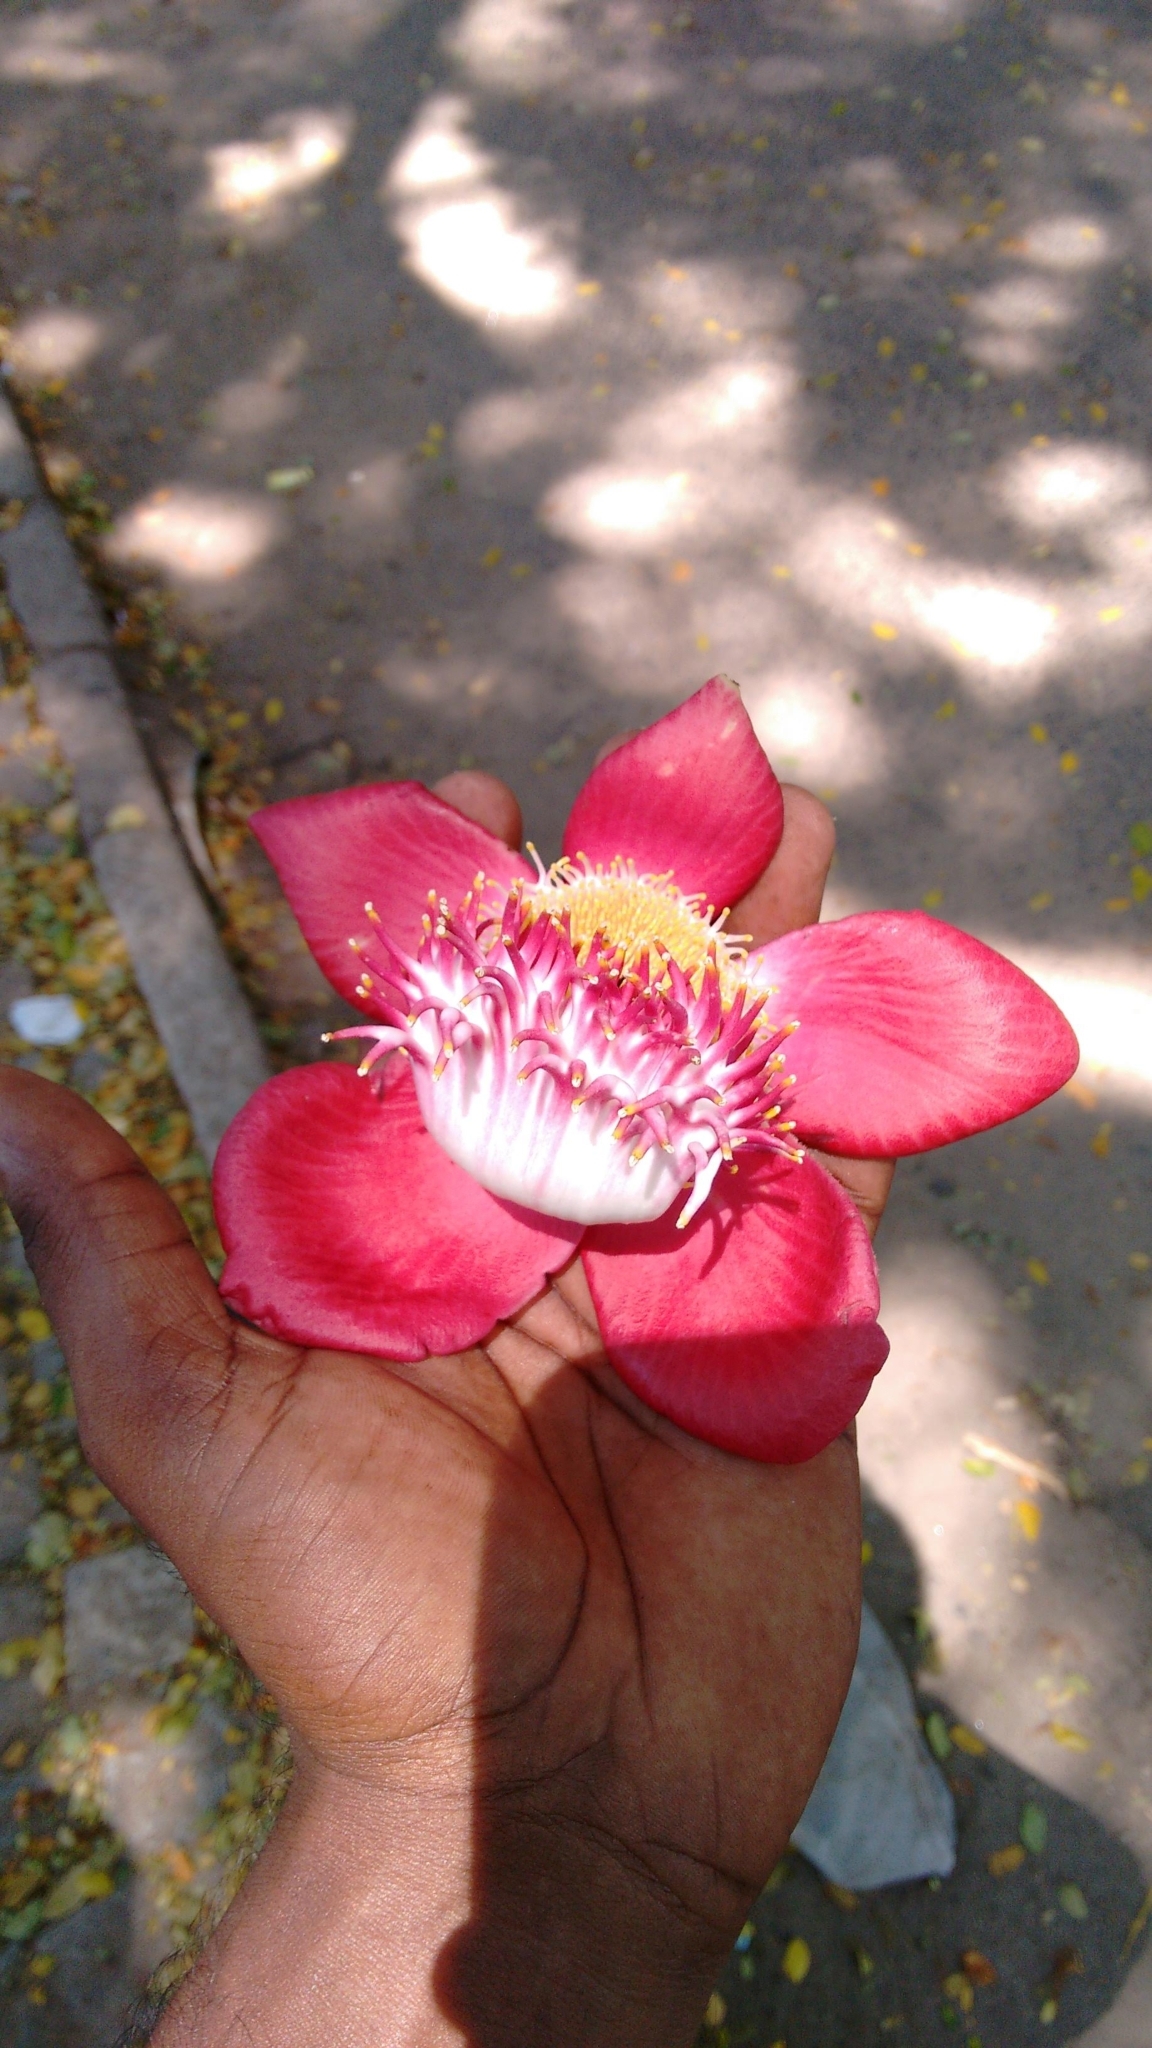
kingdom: Plantae
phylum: Tracheophyta
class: Magnoliopsida
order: Ericales
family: Lecythidaceae
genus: Couroupita
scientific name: Couroupita guianensis
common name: Cannonball tree
